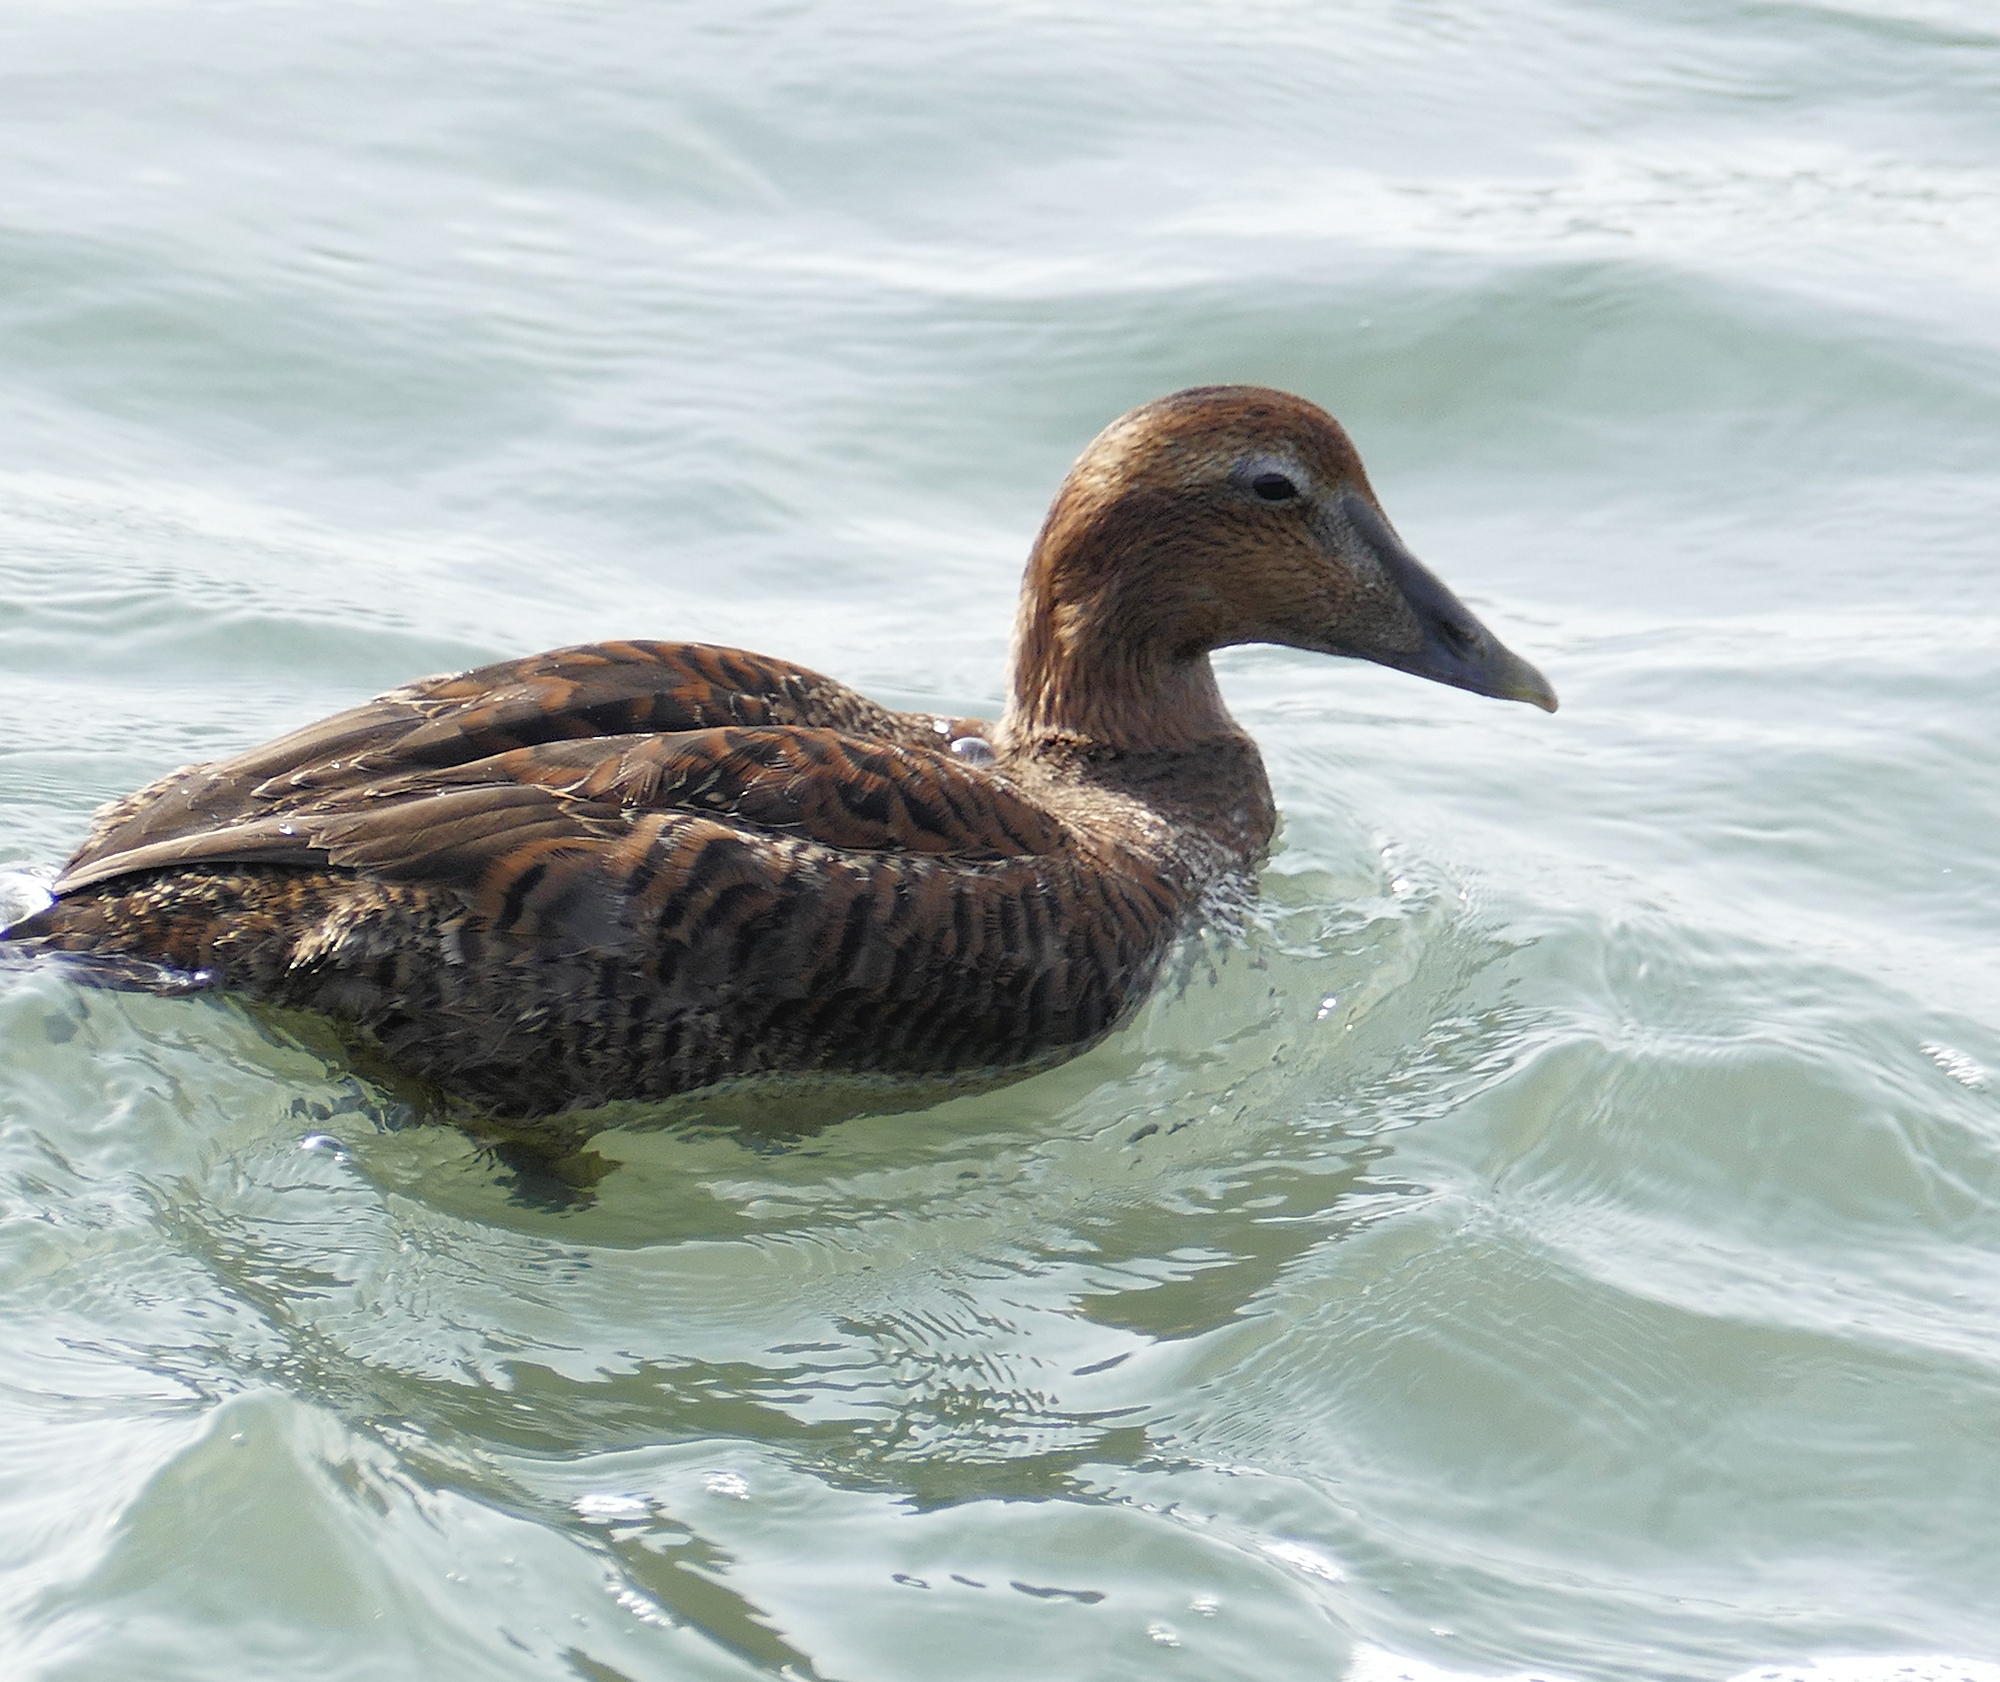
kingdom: Animalia
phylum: Chordata
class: Aves
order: Anseriformes
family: Anatidae
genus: Somateria
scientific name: Somateria mollissima
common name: Common eider
